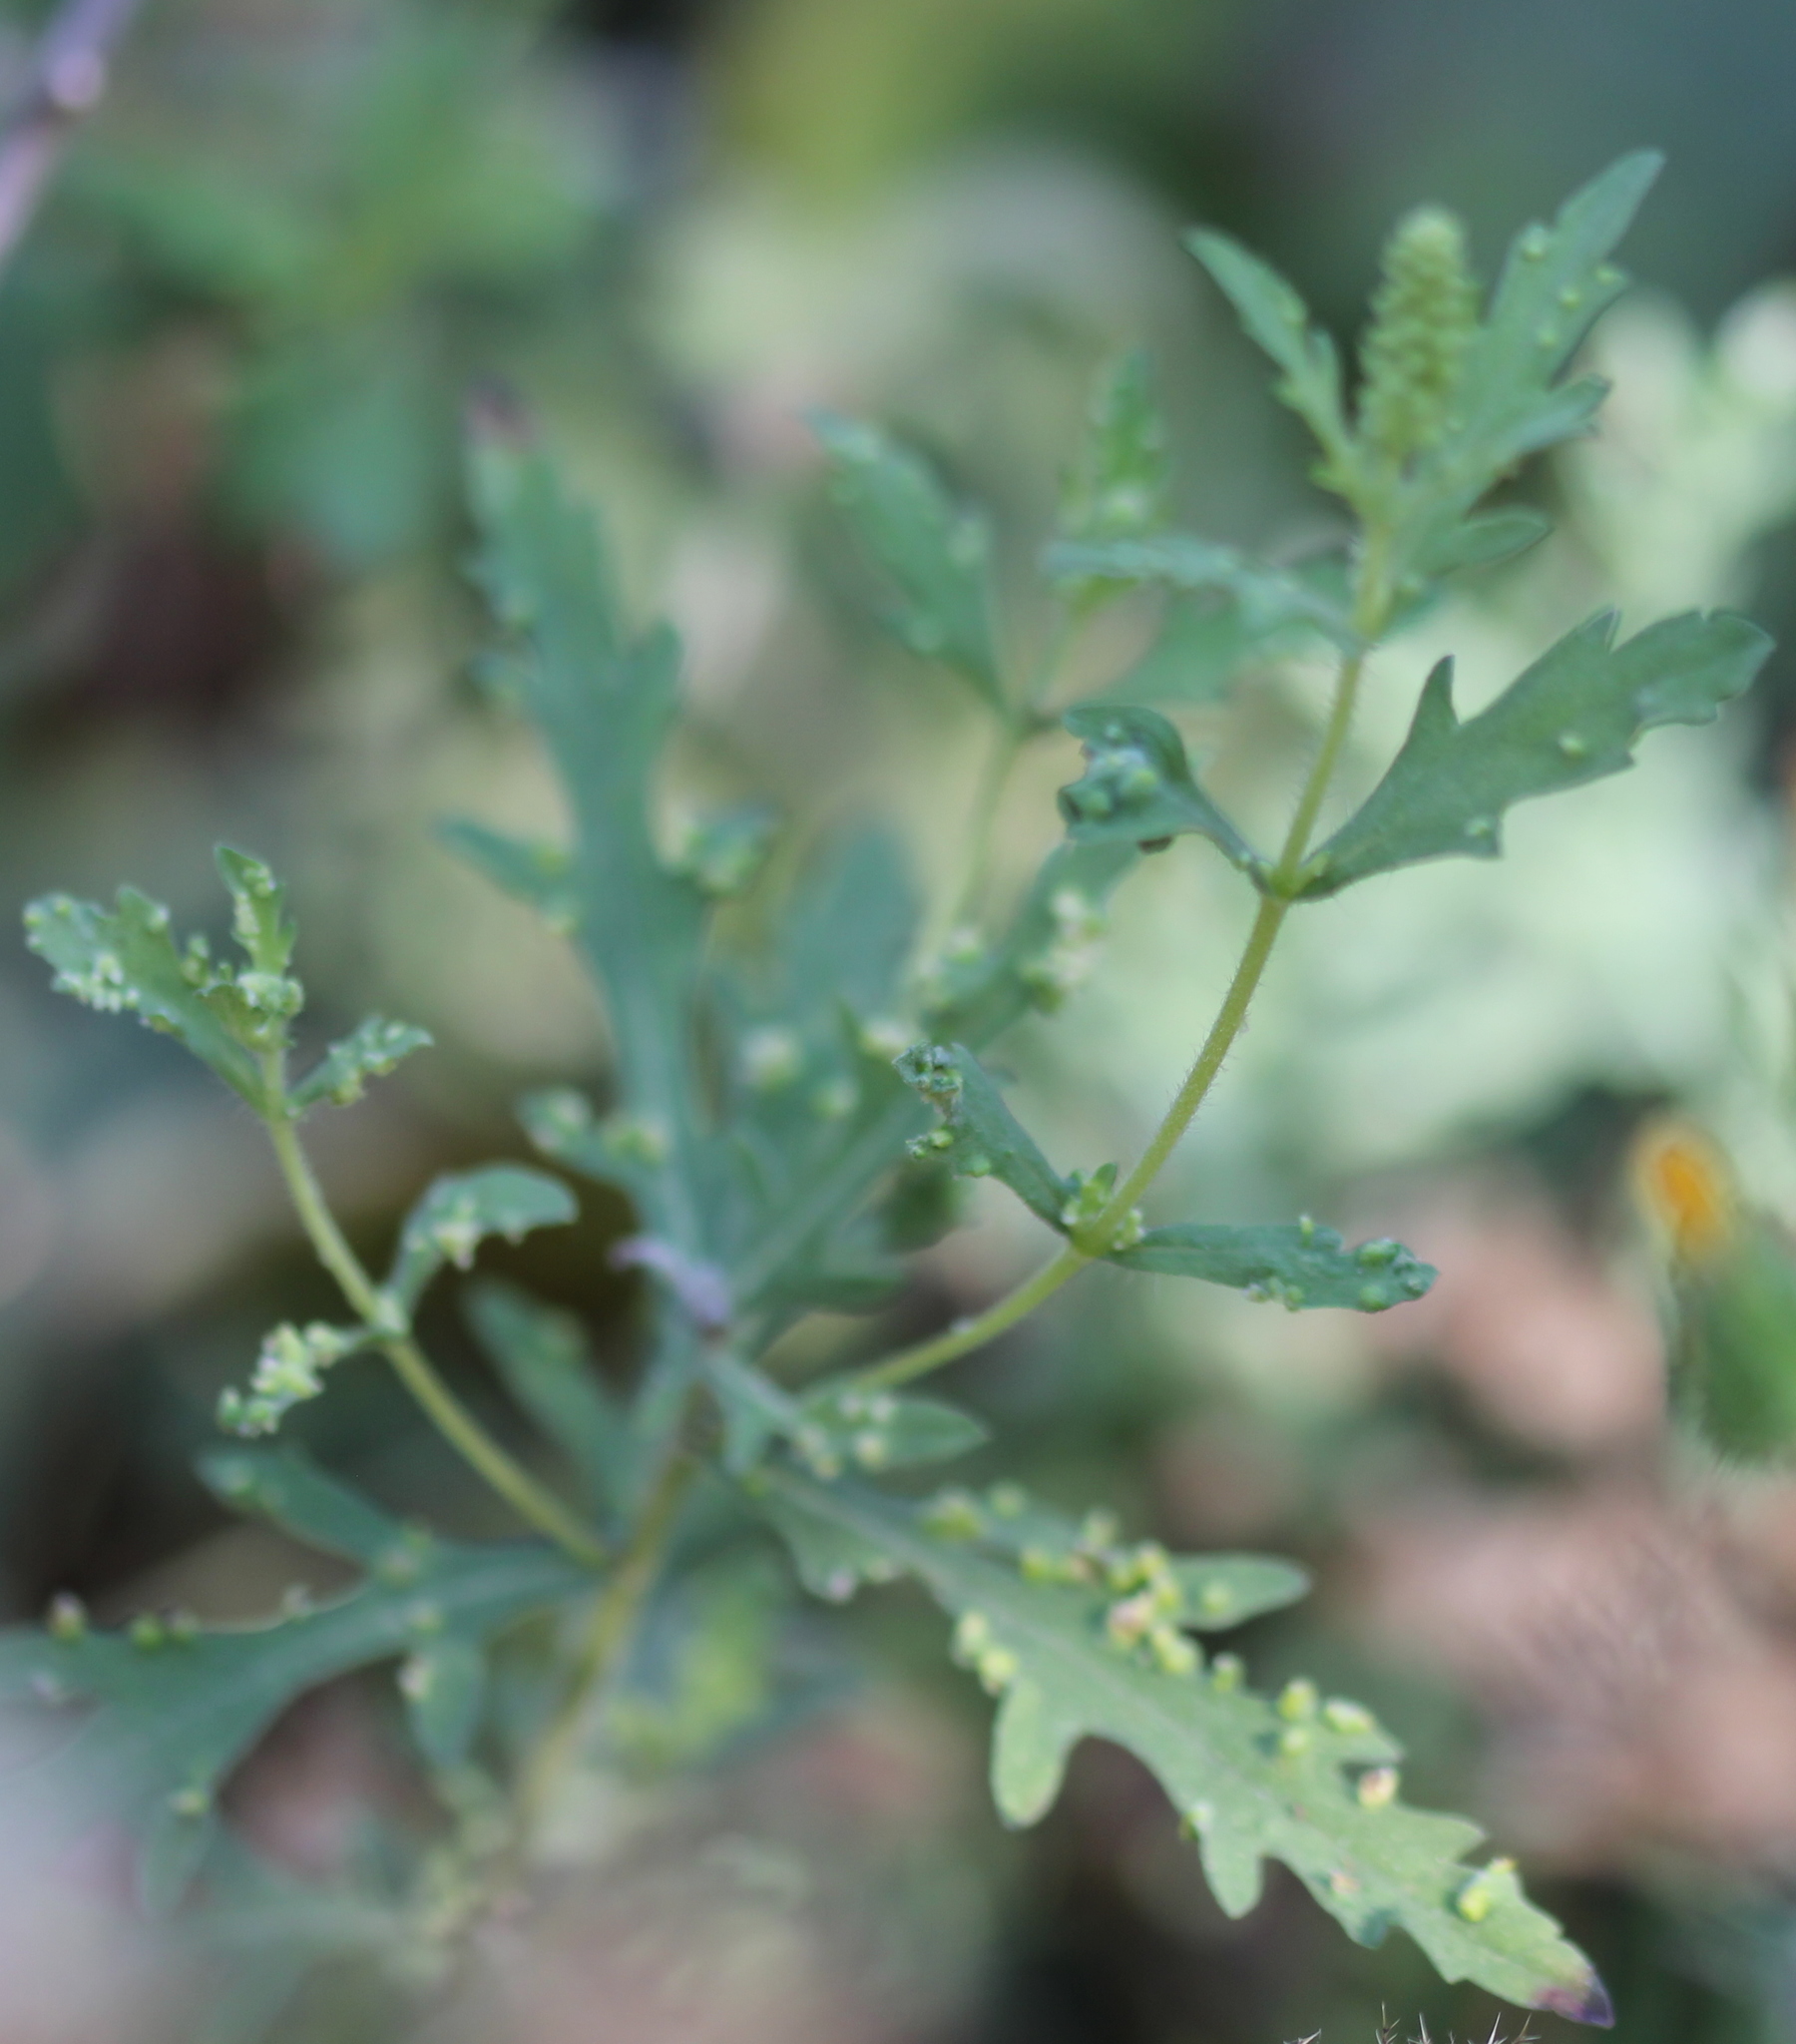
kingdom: Plantae
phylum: Tracheophyta
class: Magnoliopsida
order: Asterales
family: Asteraceae
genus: Ambrosia
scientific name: Ambrosia psilostachya
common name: Perennial ragweed
